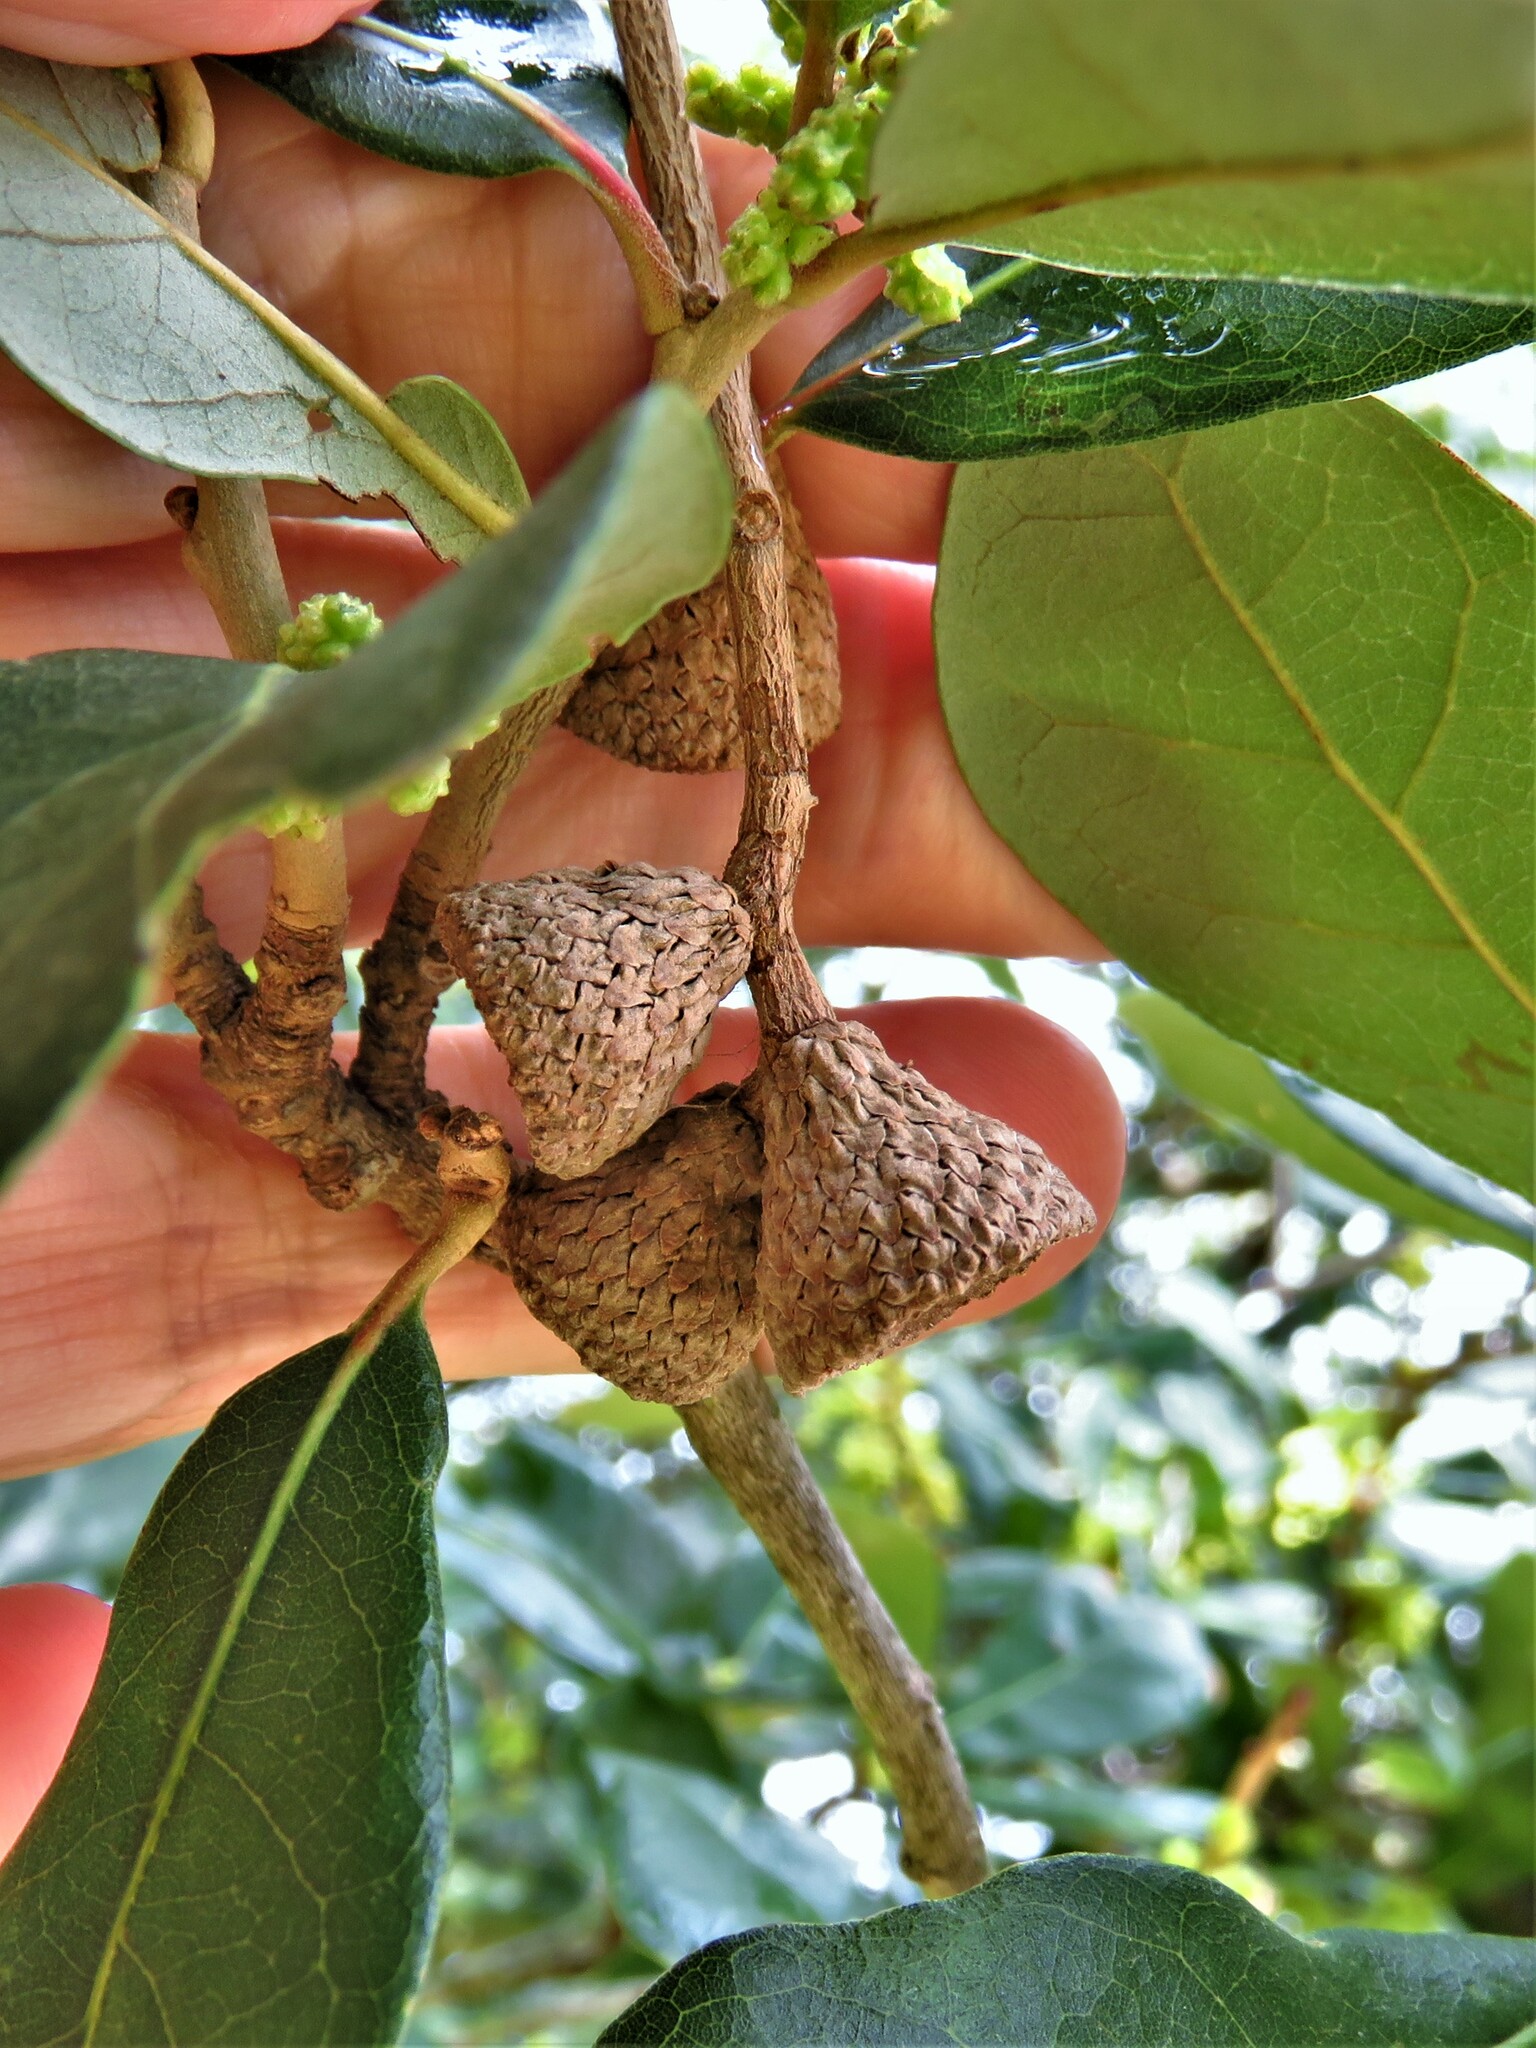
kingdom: Plantae
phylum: Tracheophyta
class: Magnoliopsida
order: Fagales
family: Fagaceae
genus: Quercus
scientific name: Quercus fusiformis
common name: Texas live oak
